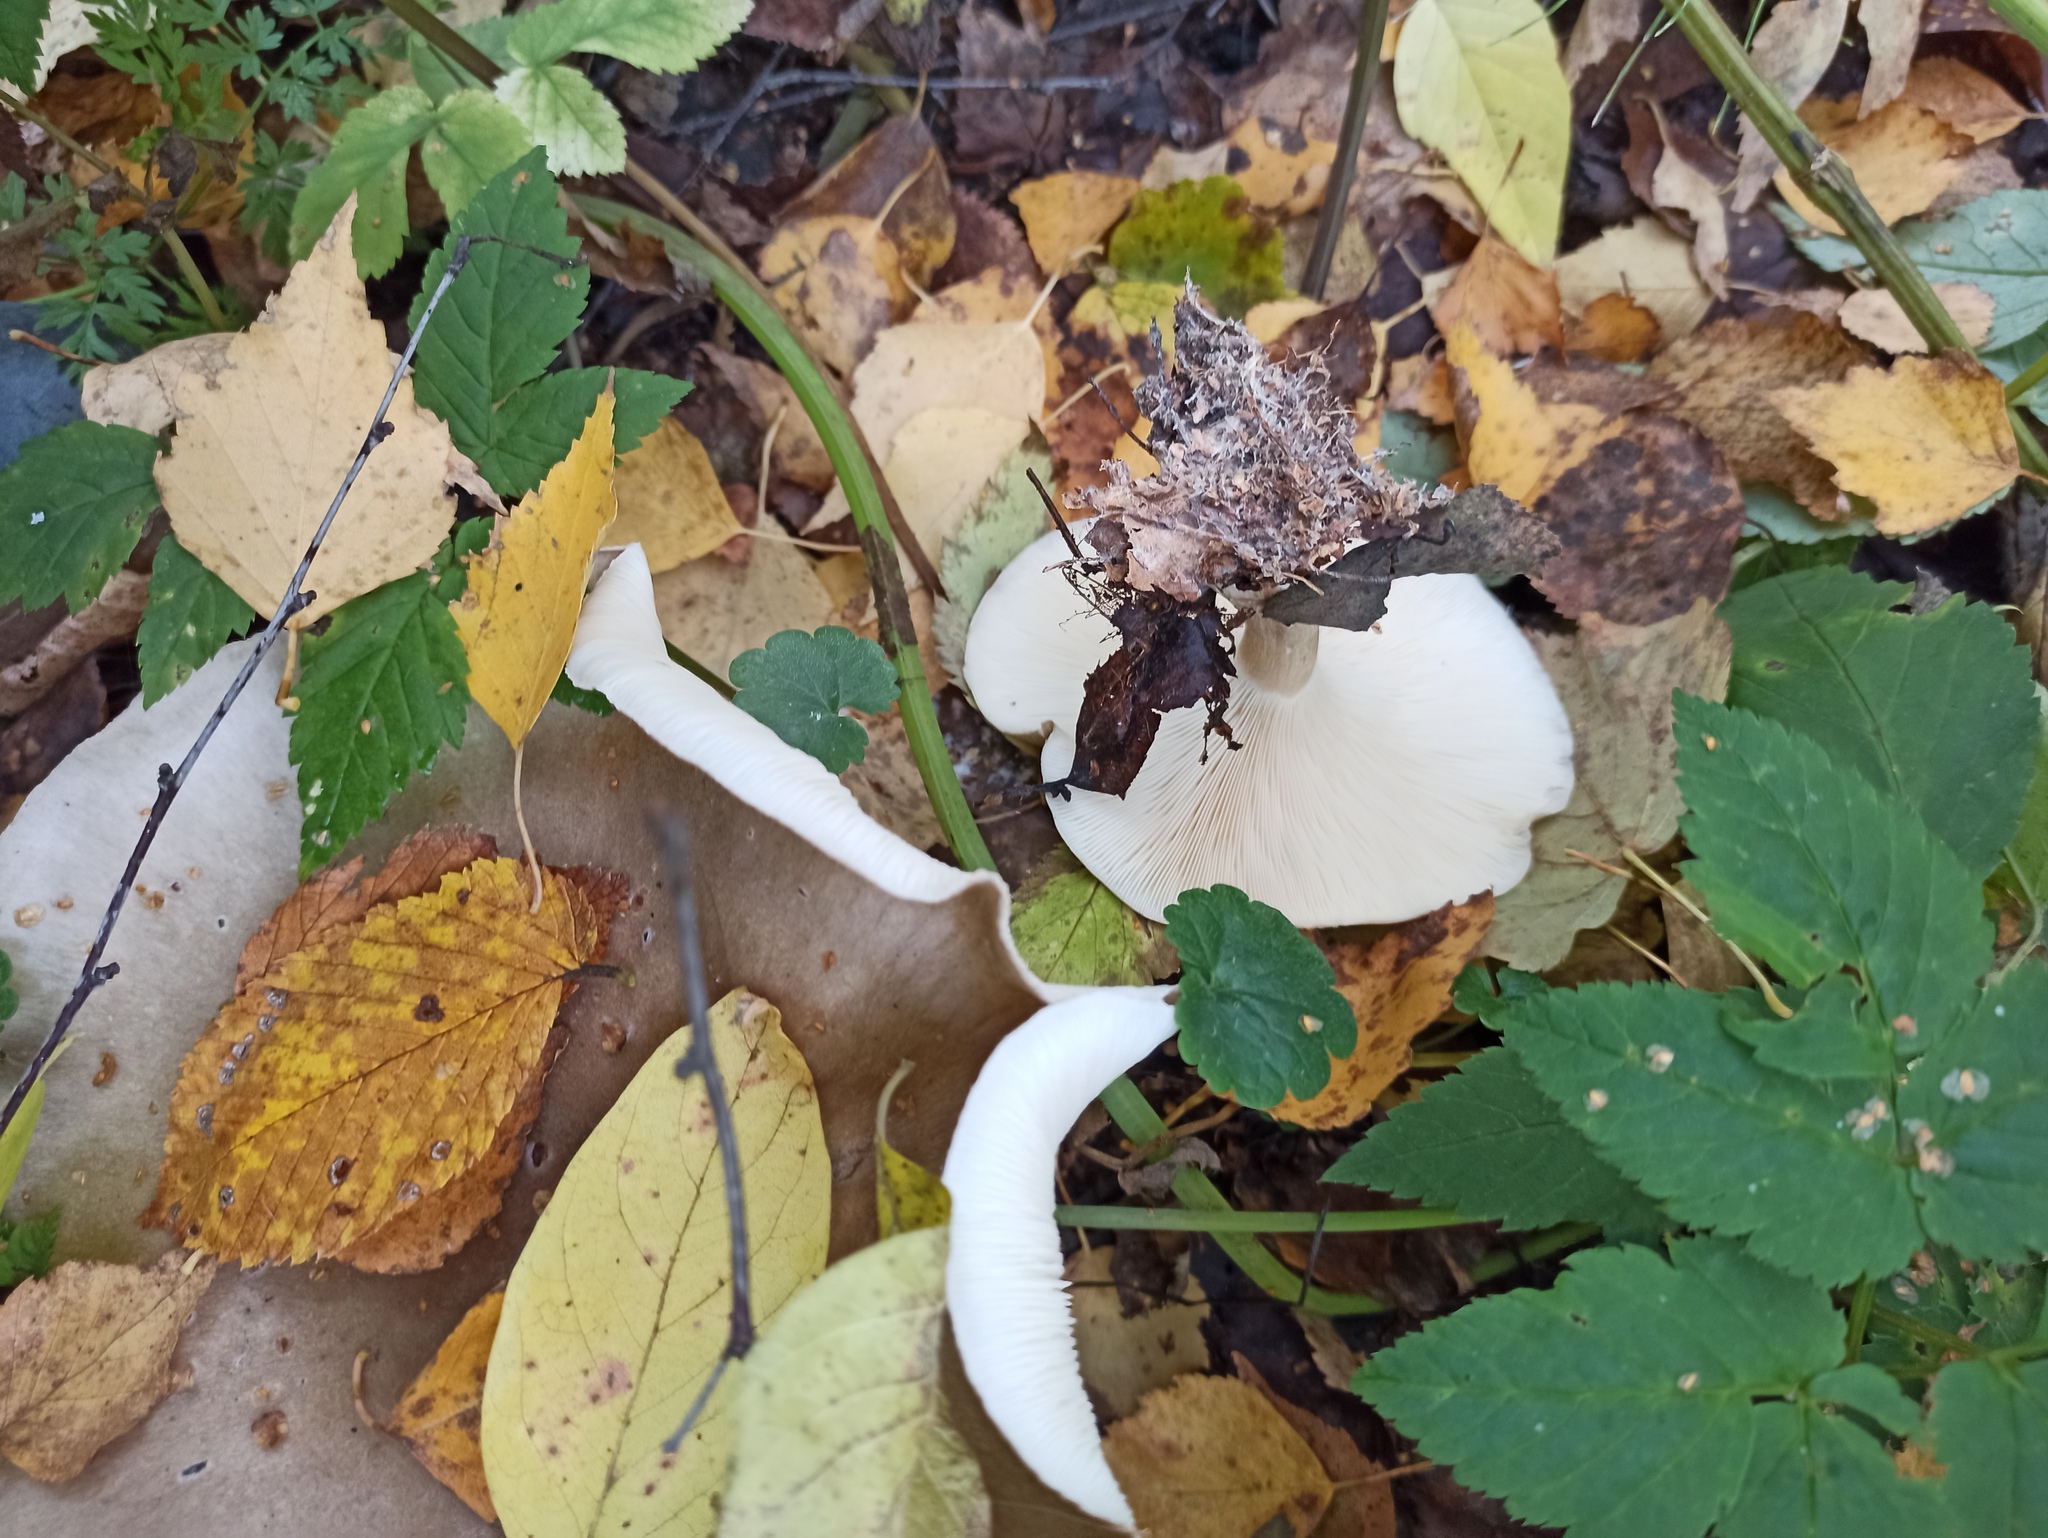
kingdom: Fungi
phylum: Basidiomycota
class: Agaricomycetes
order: Agaricales
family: Tricholomataceae
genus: Clitocybe
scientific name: Clitocybe nebularis
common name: Clouded agaric
